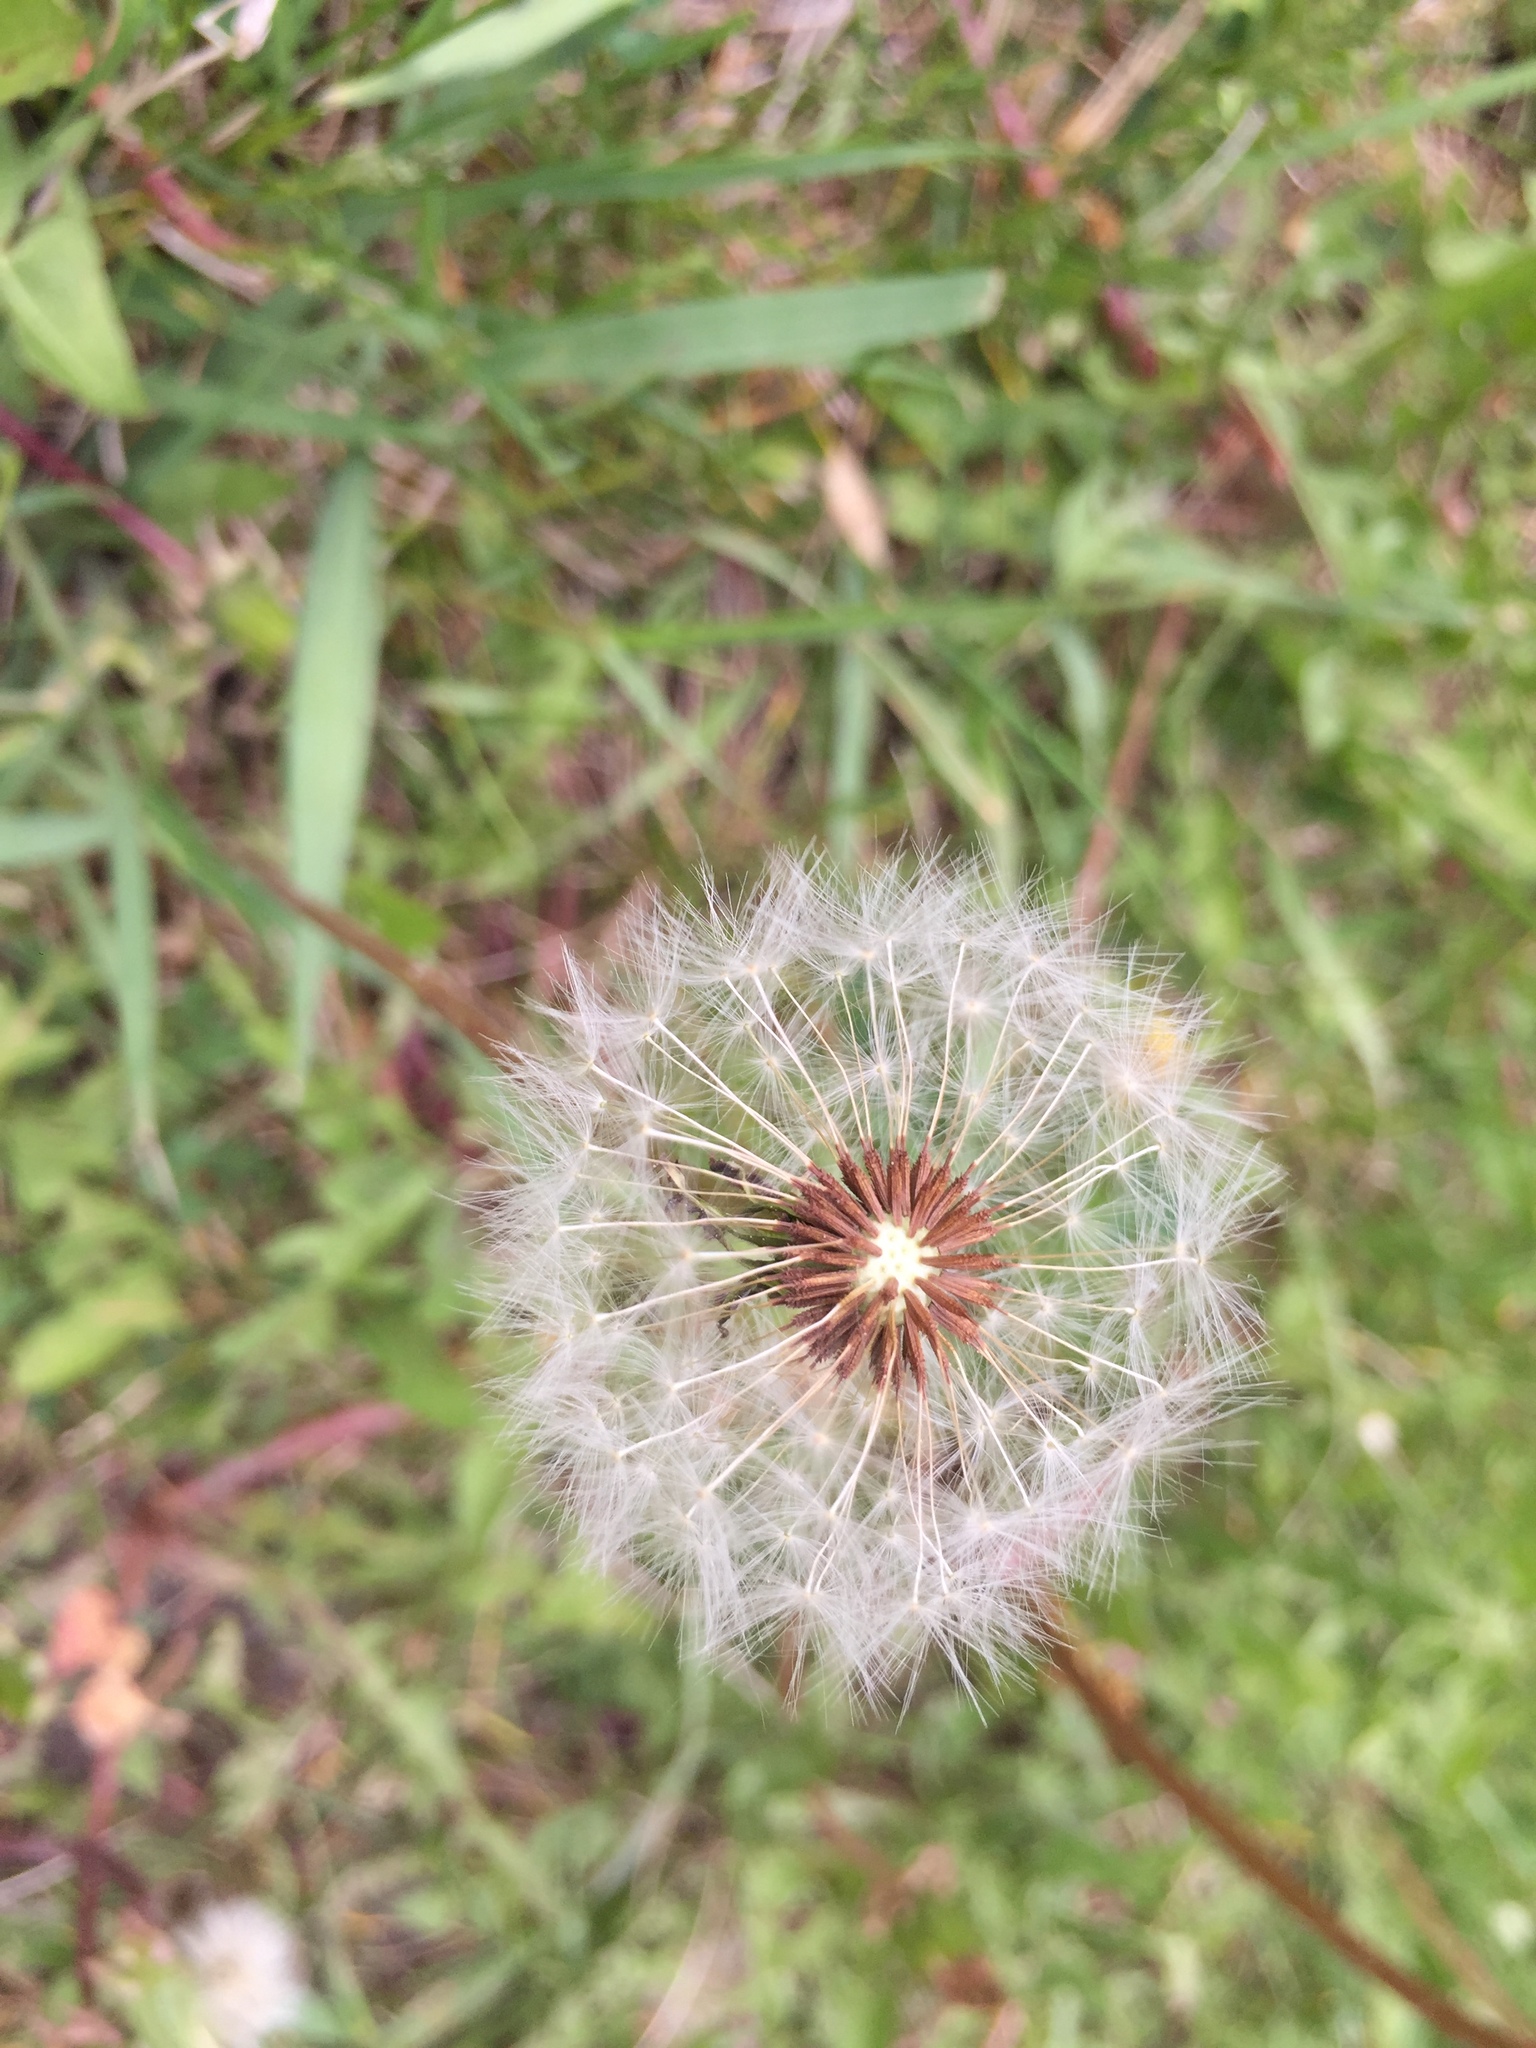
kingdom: Plantae
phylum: Tracheophyta
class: Magnoliopsida
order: Asterales
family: Asteraceae
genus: Taraxacum
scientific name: Taraxacum officinale
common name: Common dandelion
